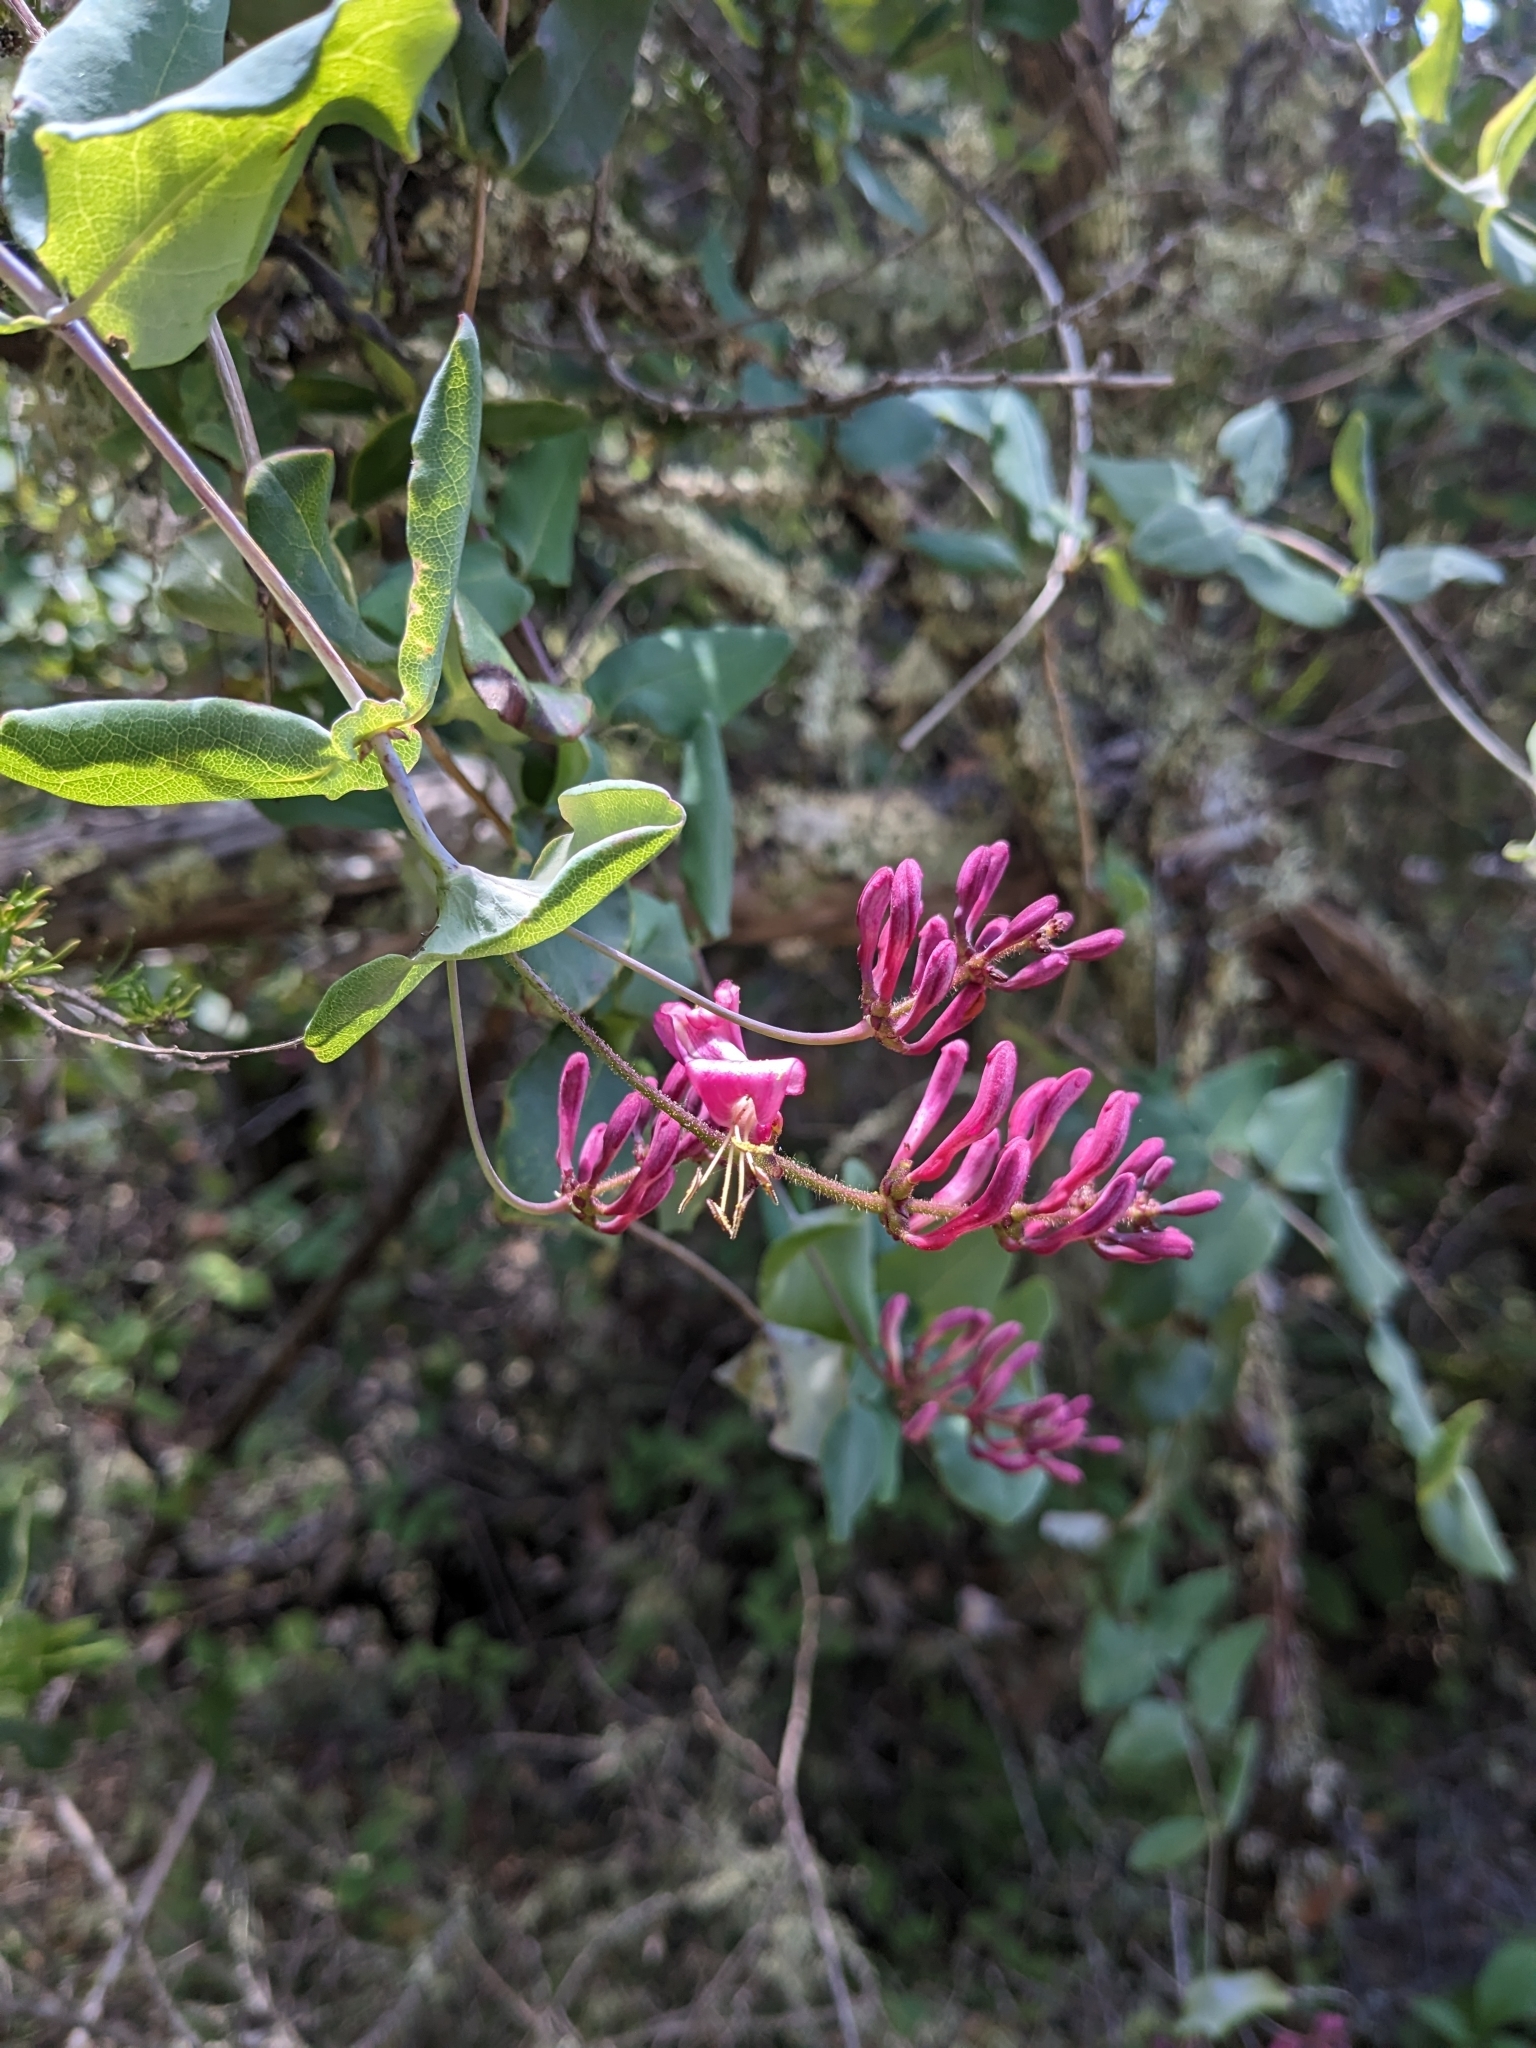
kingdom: Plantae
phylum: Tracheophyta
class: Magnoliopsida
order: Dipsacales
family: Caprifoliaceae
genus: Lonicera
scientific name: Lonicera hispidula
